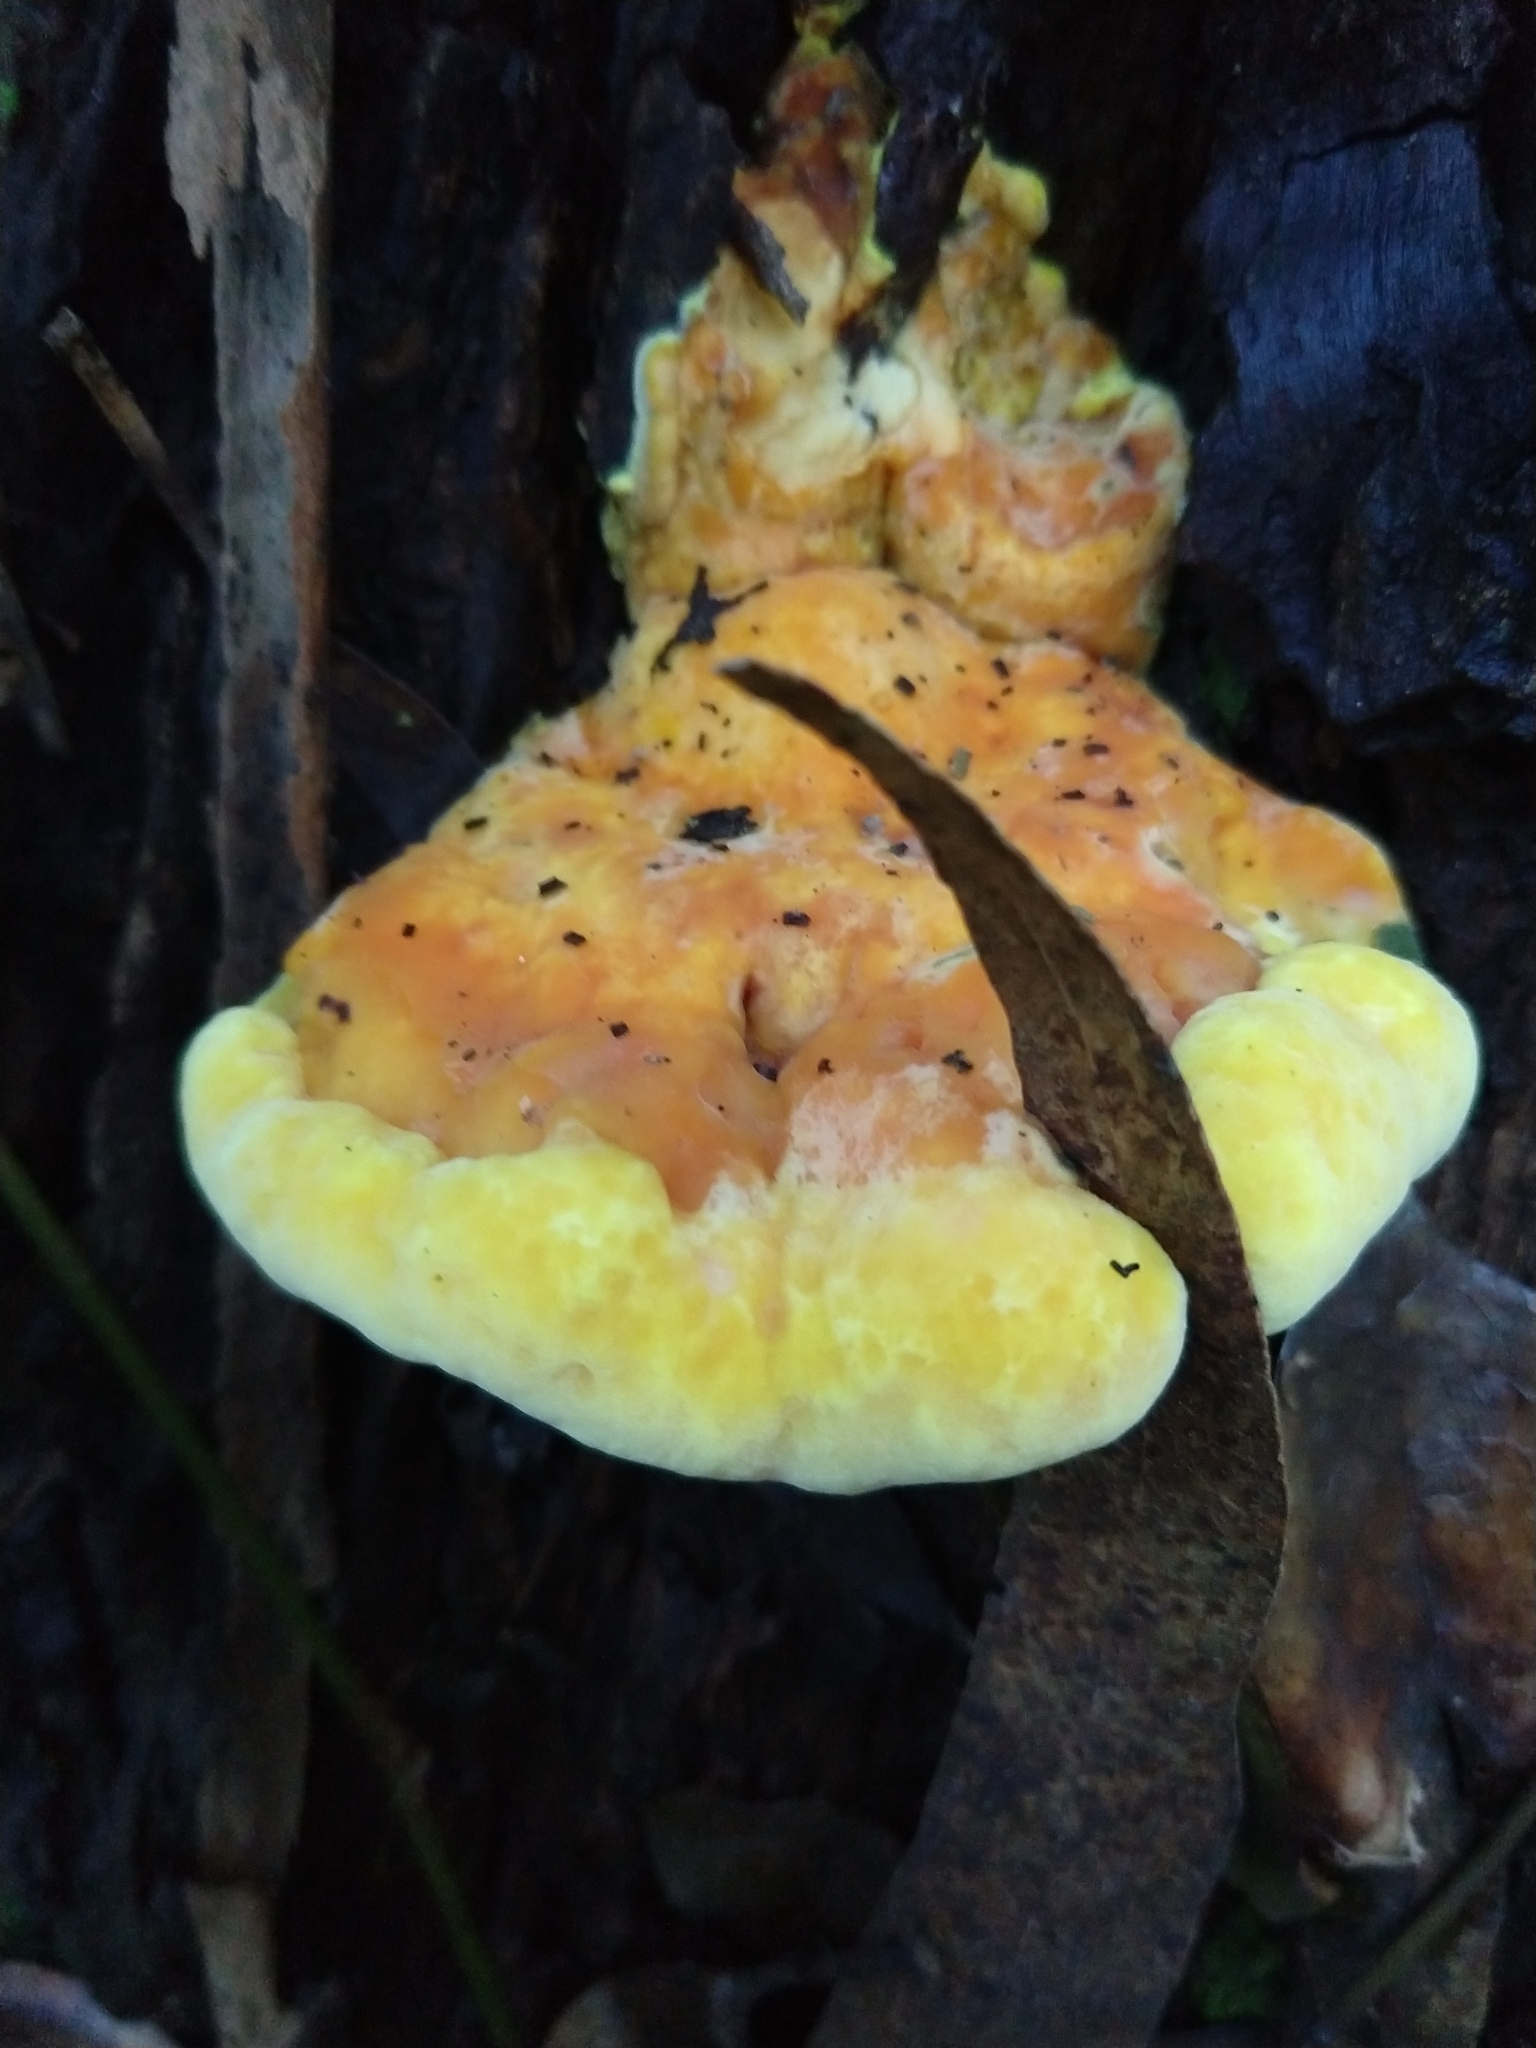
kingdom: Fungi
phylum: Basidiomycota
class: Agaricomycetes
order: Polyporales
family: Laetiporaceae
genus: Laetiporus
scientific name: Laetiporus gilbertsonii
